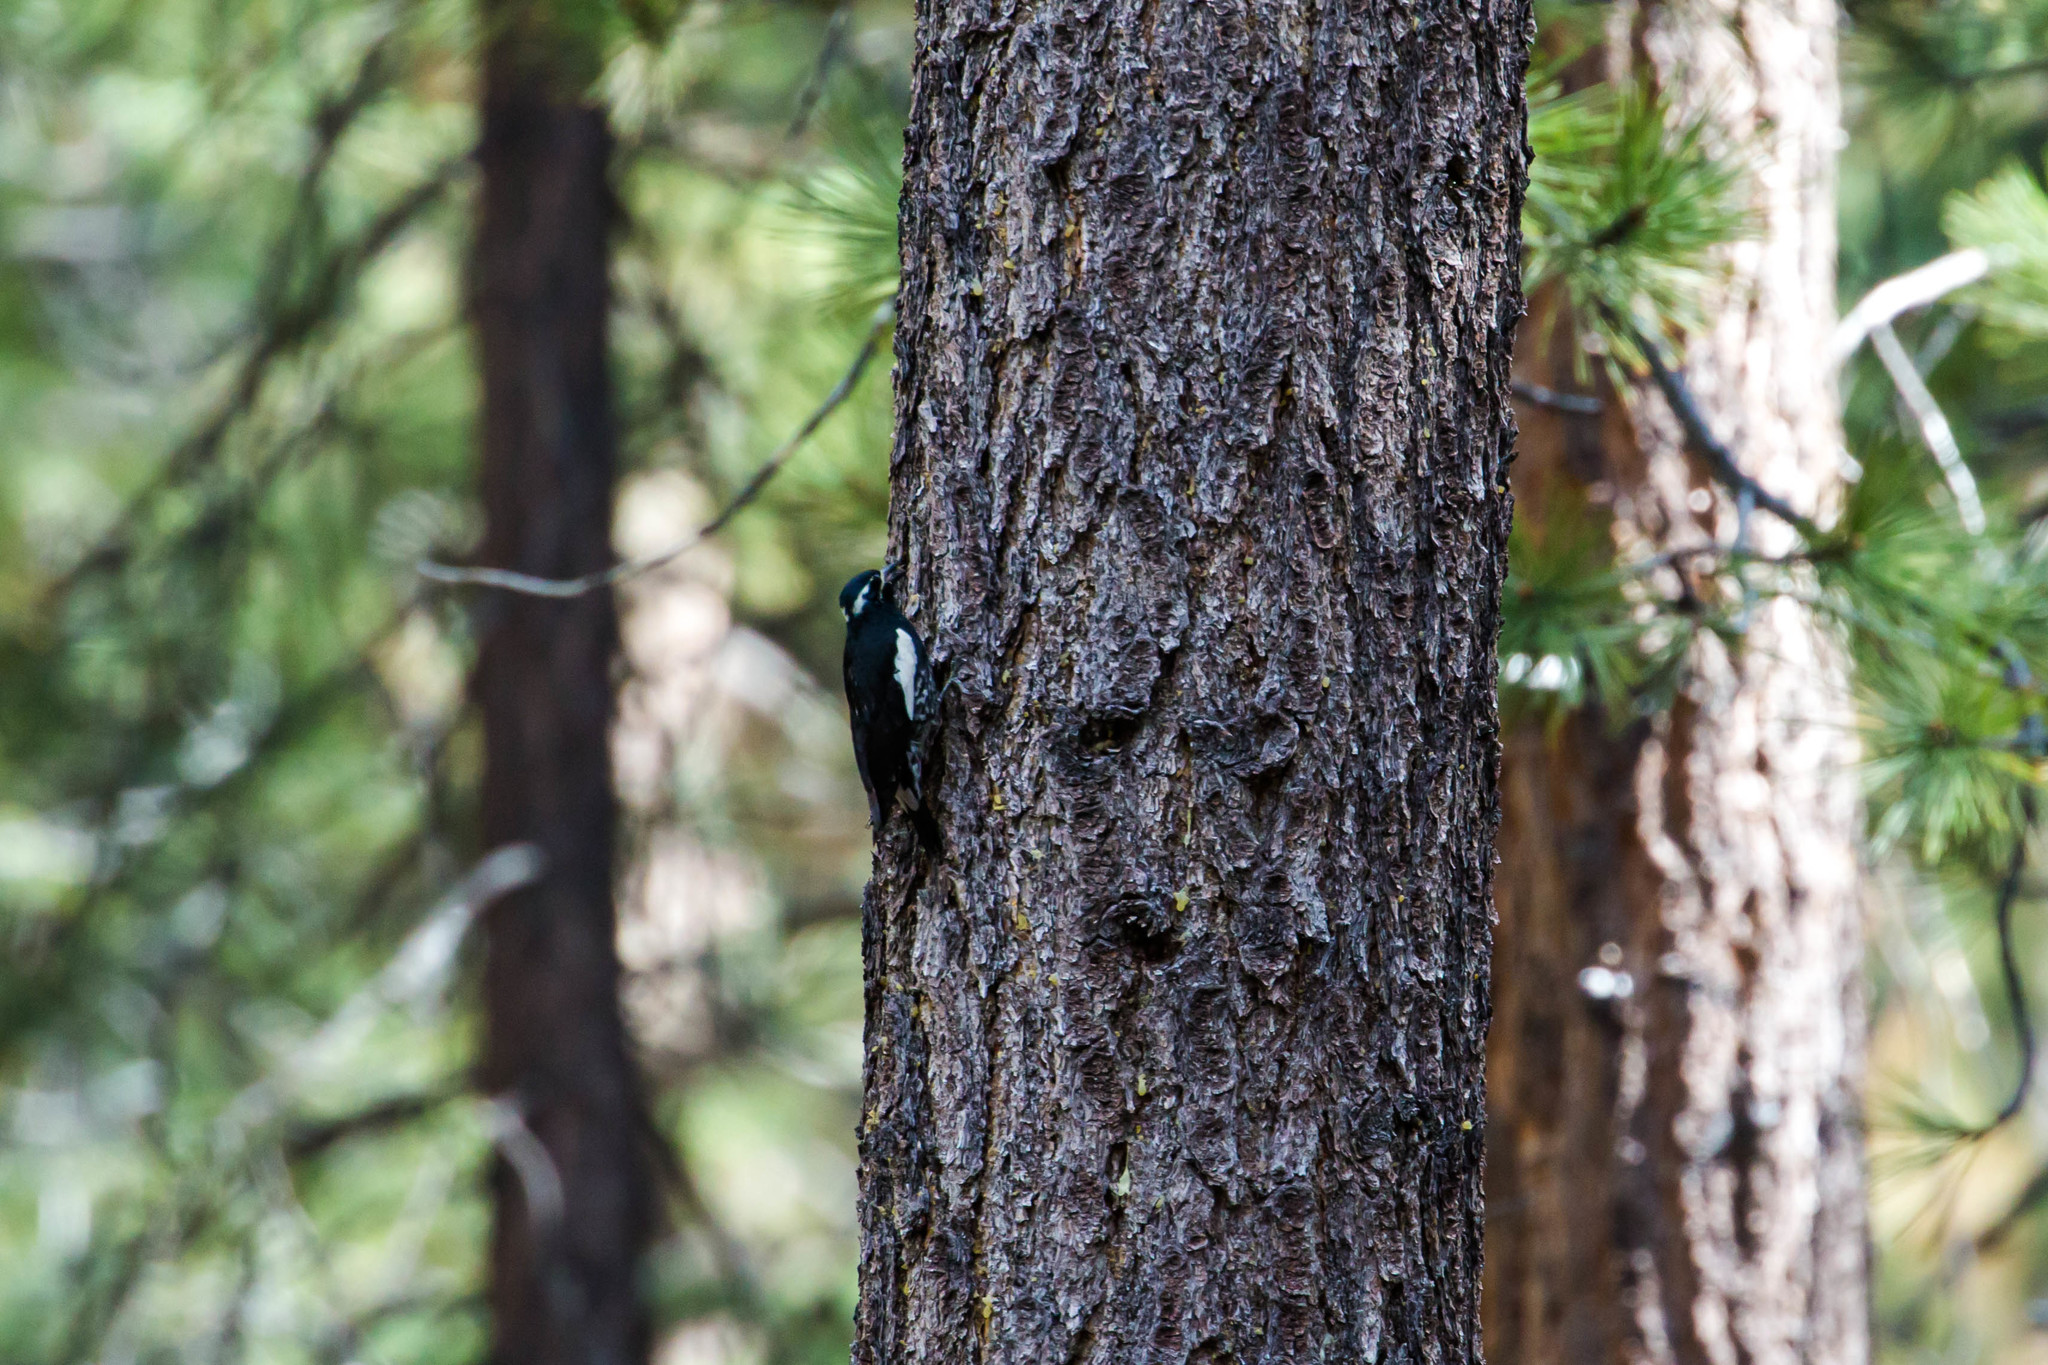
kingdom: Animalia
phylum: Chordata
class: Aves
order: Piciformes
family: Picidae
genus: Sphyrapicus
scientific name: Sphyrapicus thyroideus
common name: Williamson's sapsucker
